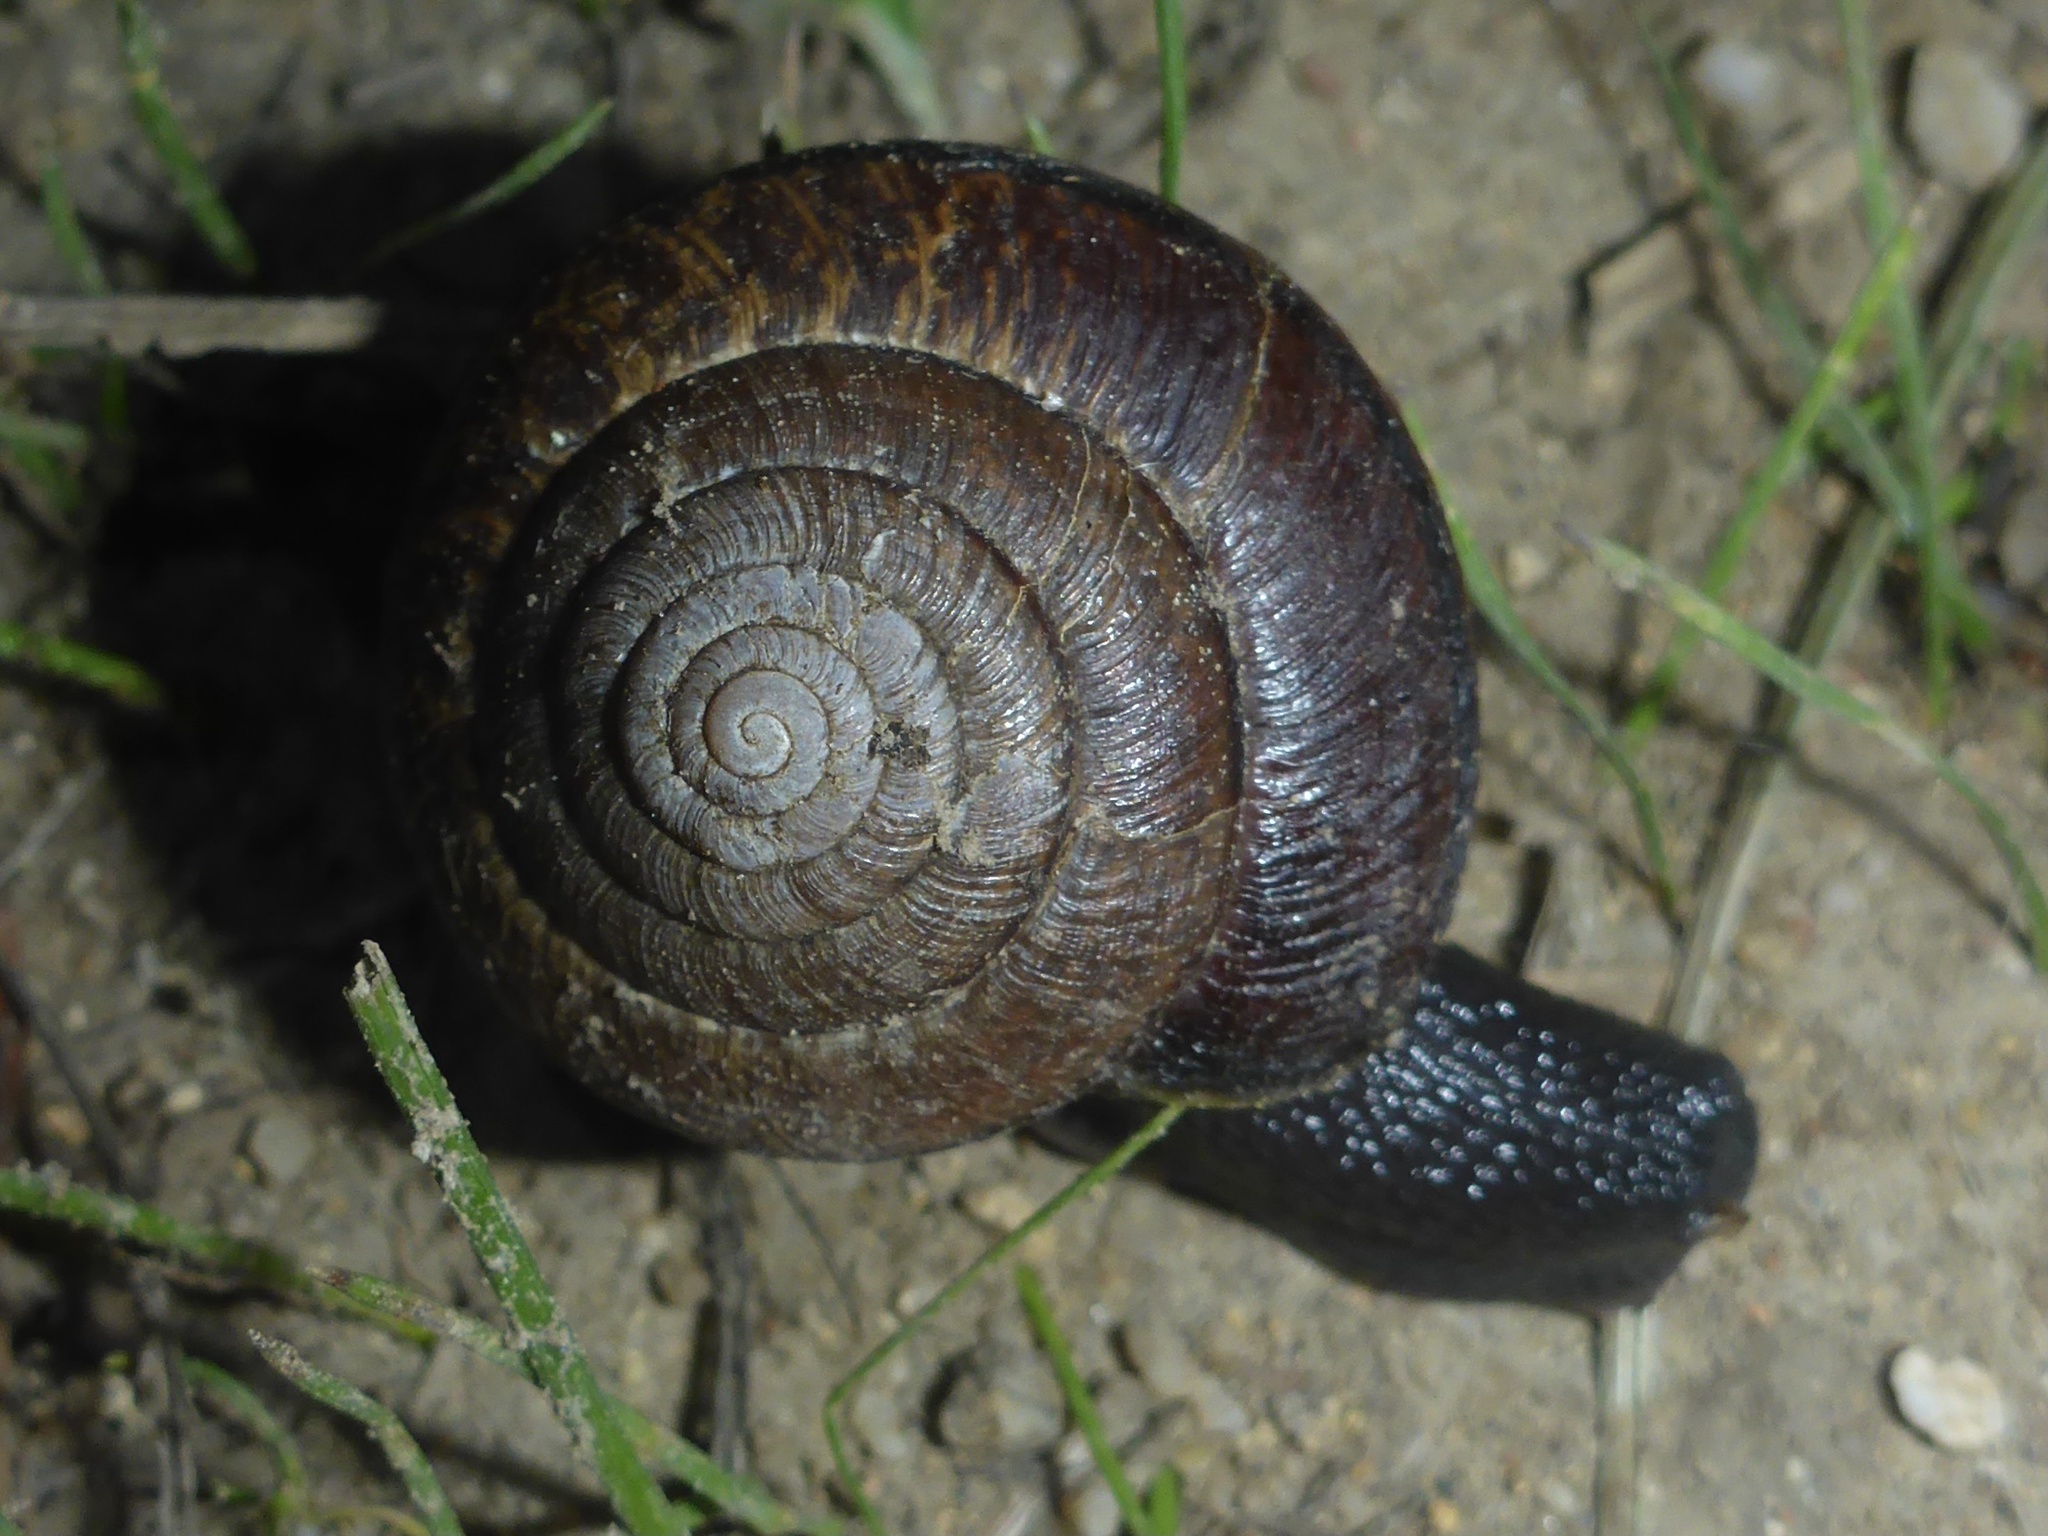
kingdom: Animalia
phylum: Mollusca
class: Gastropoda
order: Stylommatophora
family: Xanthonychidae
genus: Helminthoglypta
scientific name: Helminthoglypta arrosa
